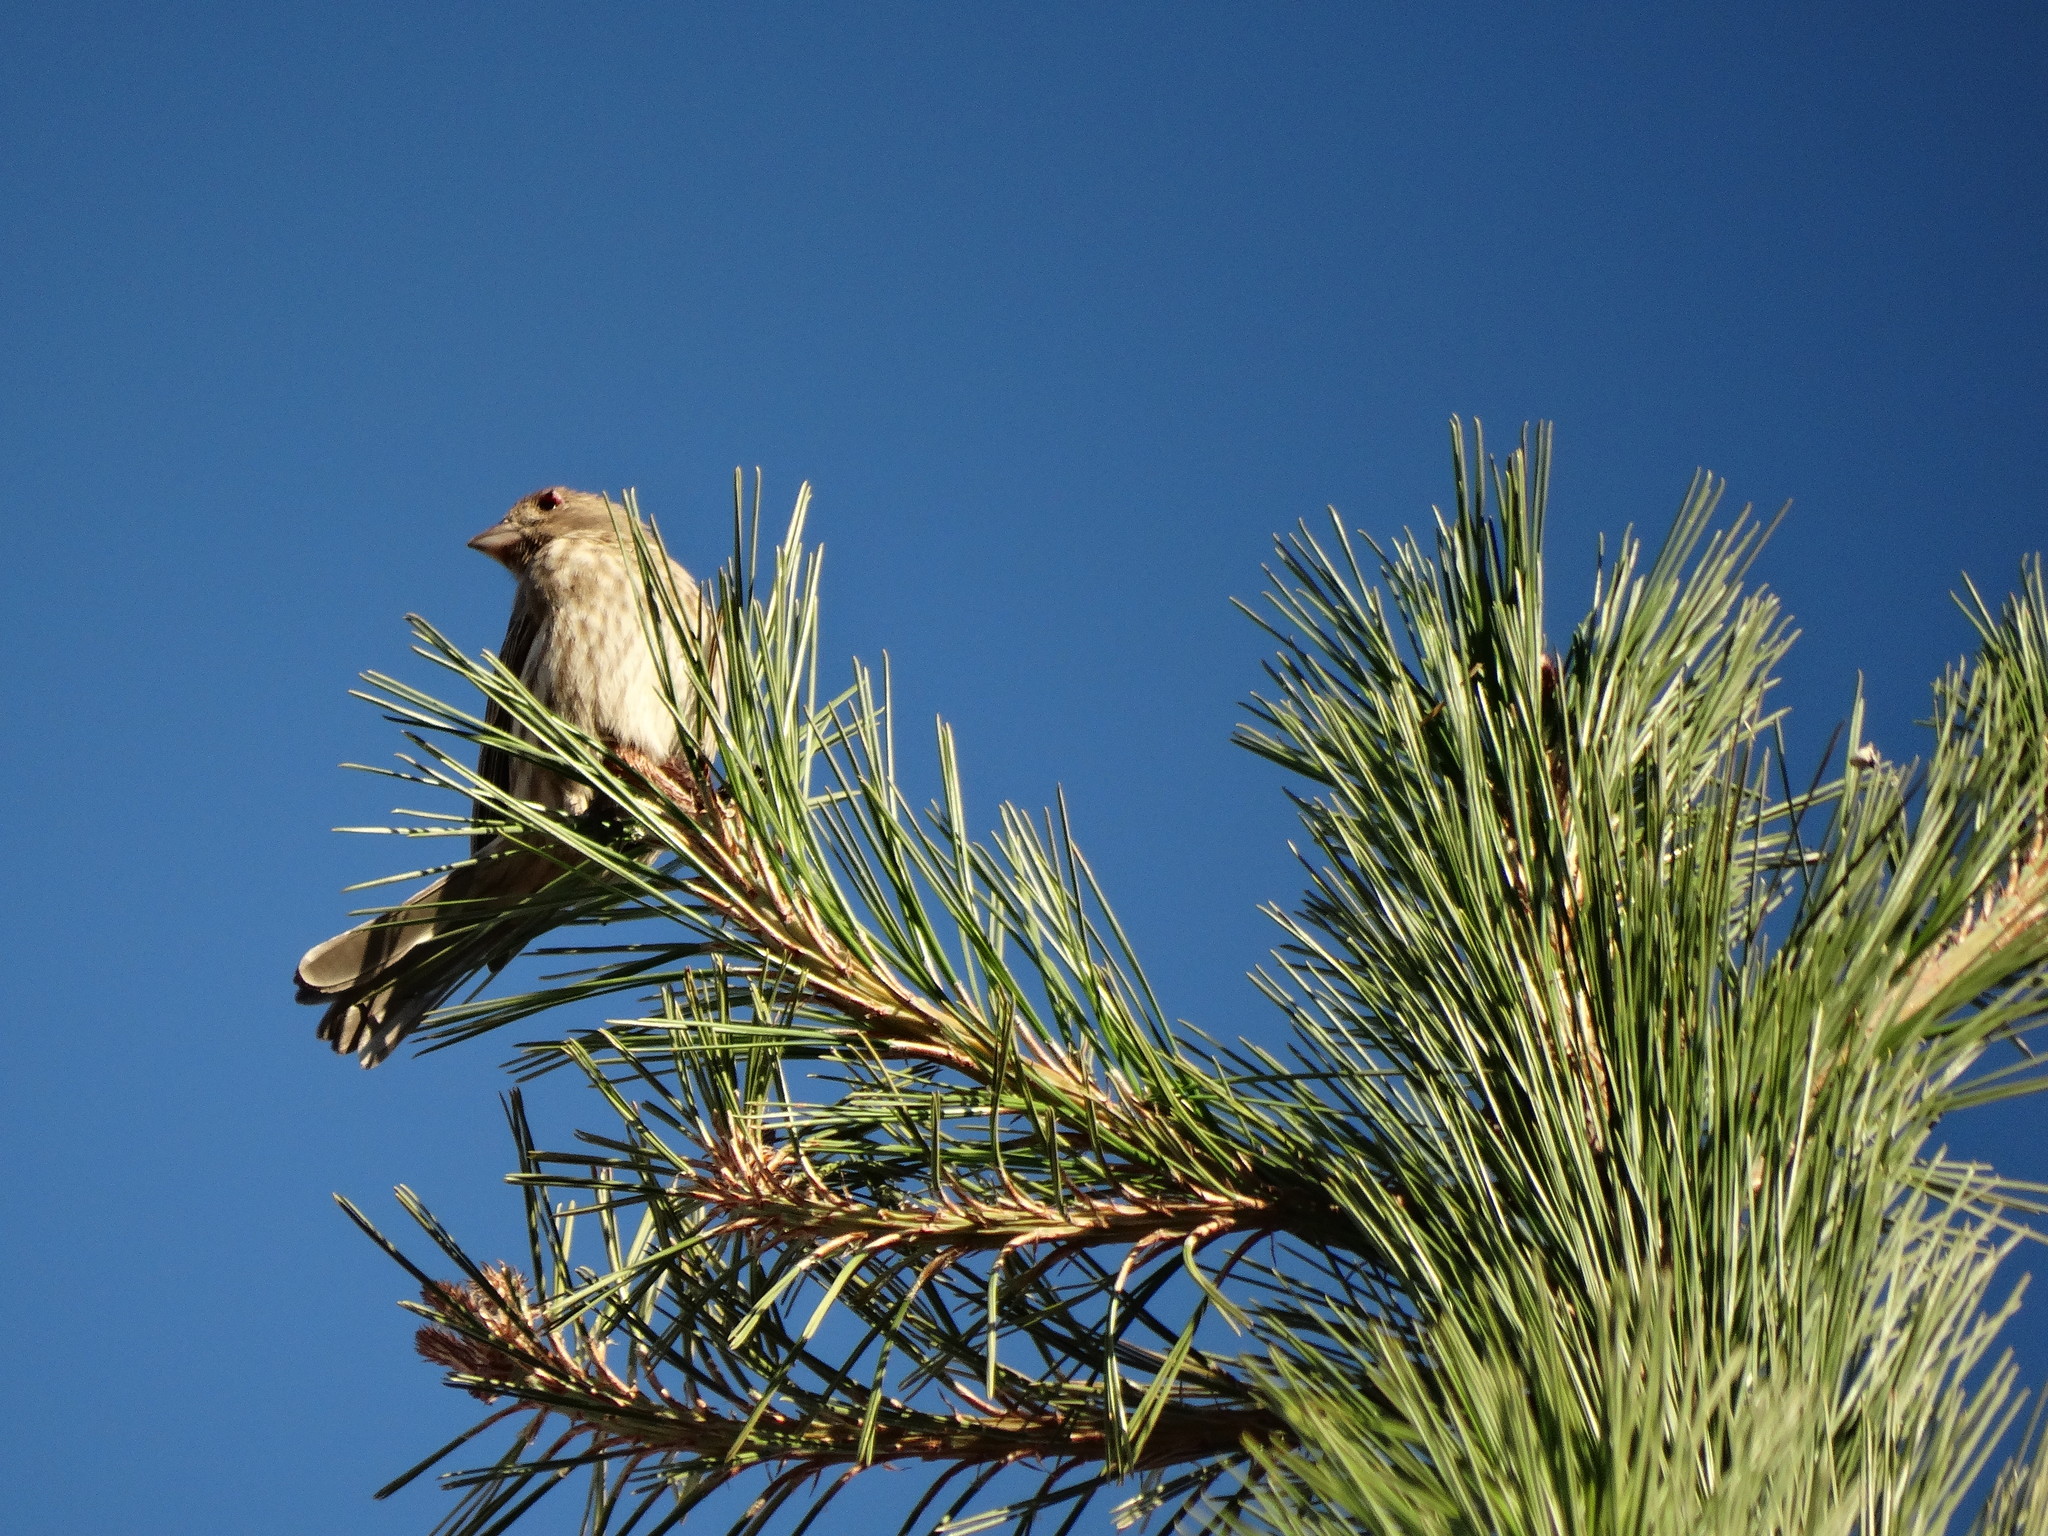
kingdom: Animalia
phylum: Chordata
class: Aves
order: Passeriformes
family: Fringillidae
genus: Haemorhous
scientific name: Haemorhous mexicanus
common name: House finch
